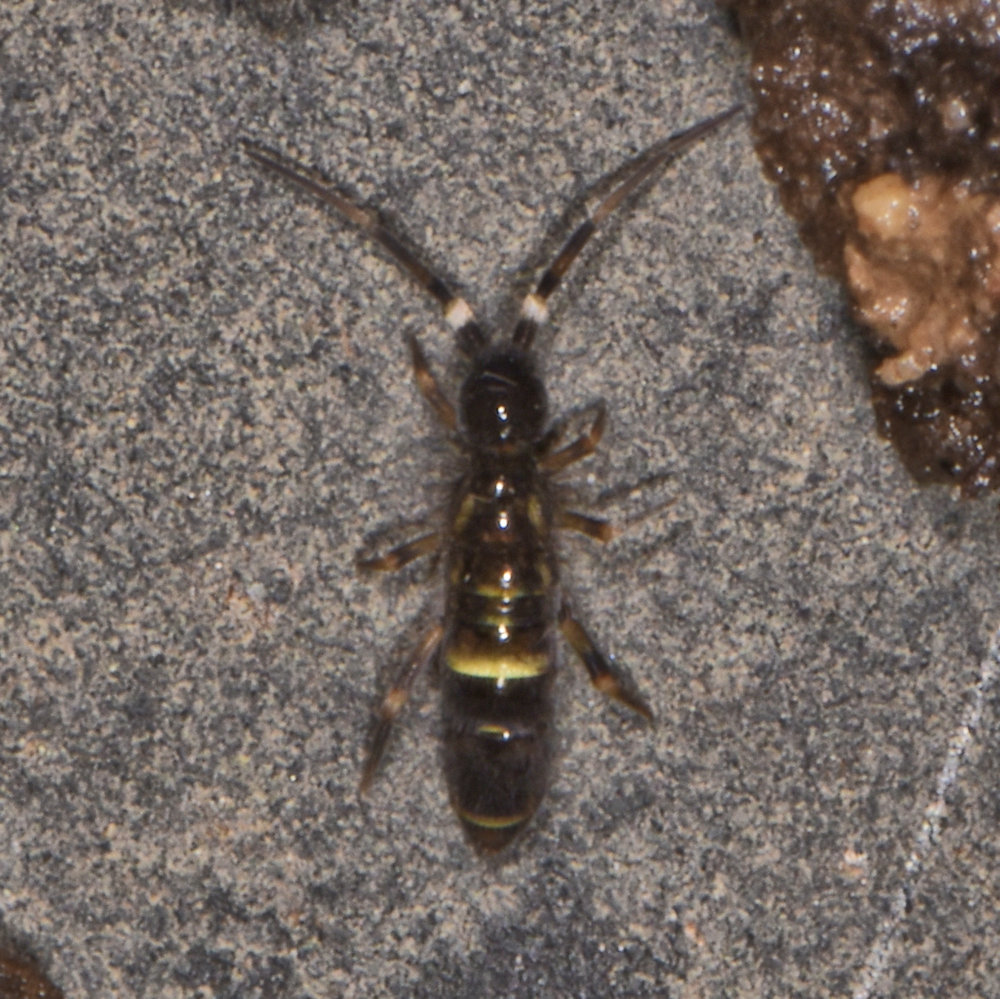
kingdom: Animalia
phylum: Arthropoda
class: Collembola
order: Entomobryomorpha
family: Orchesellidae
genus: Orchesella
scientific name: Orchesella cincta
